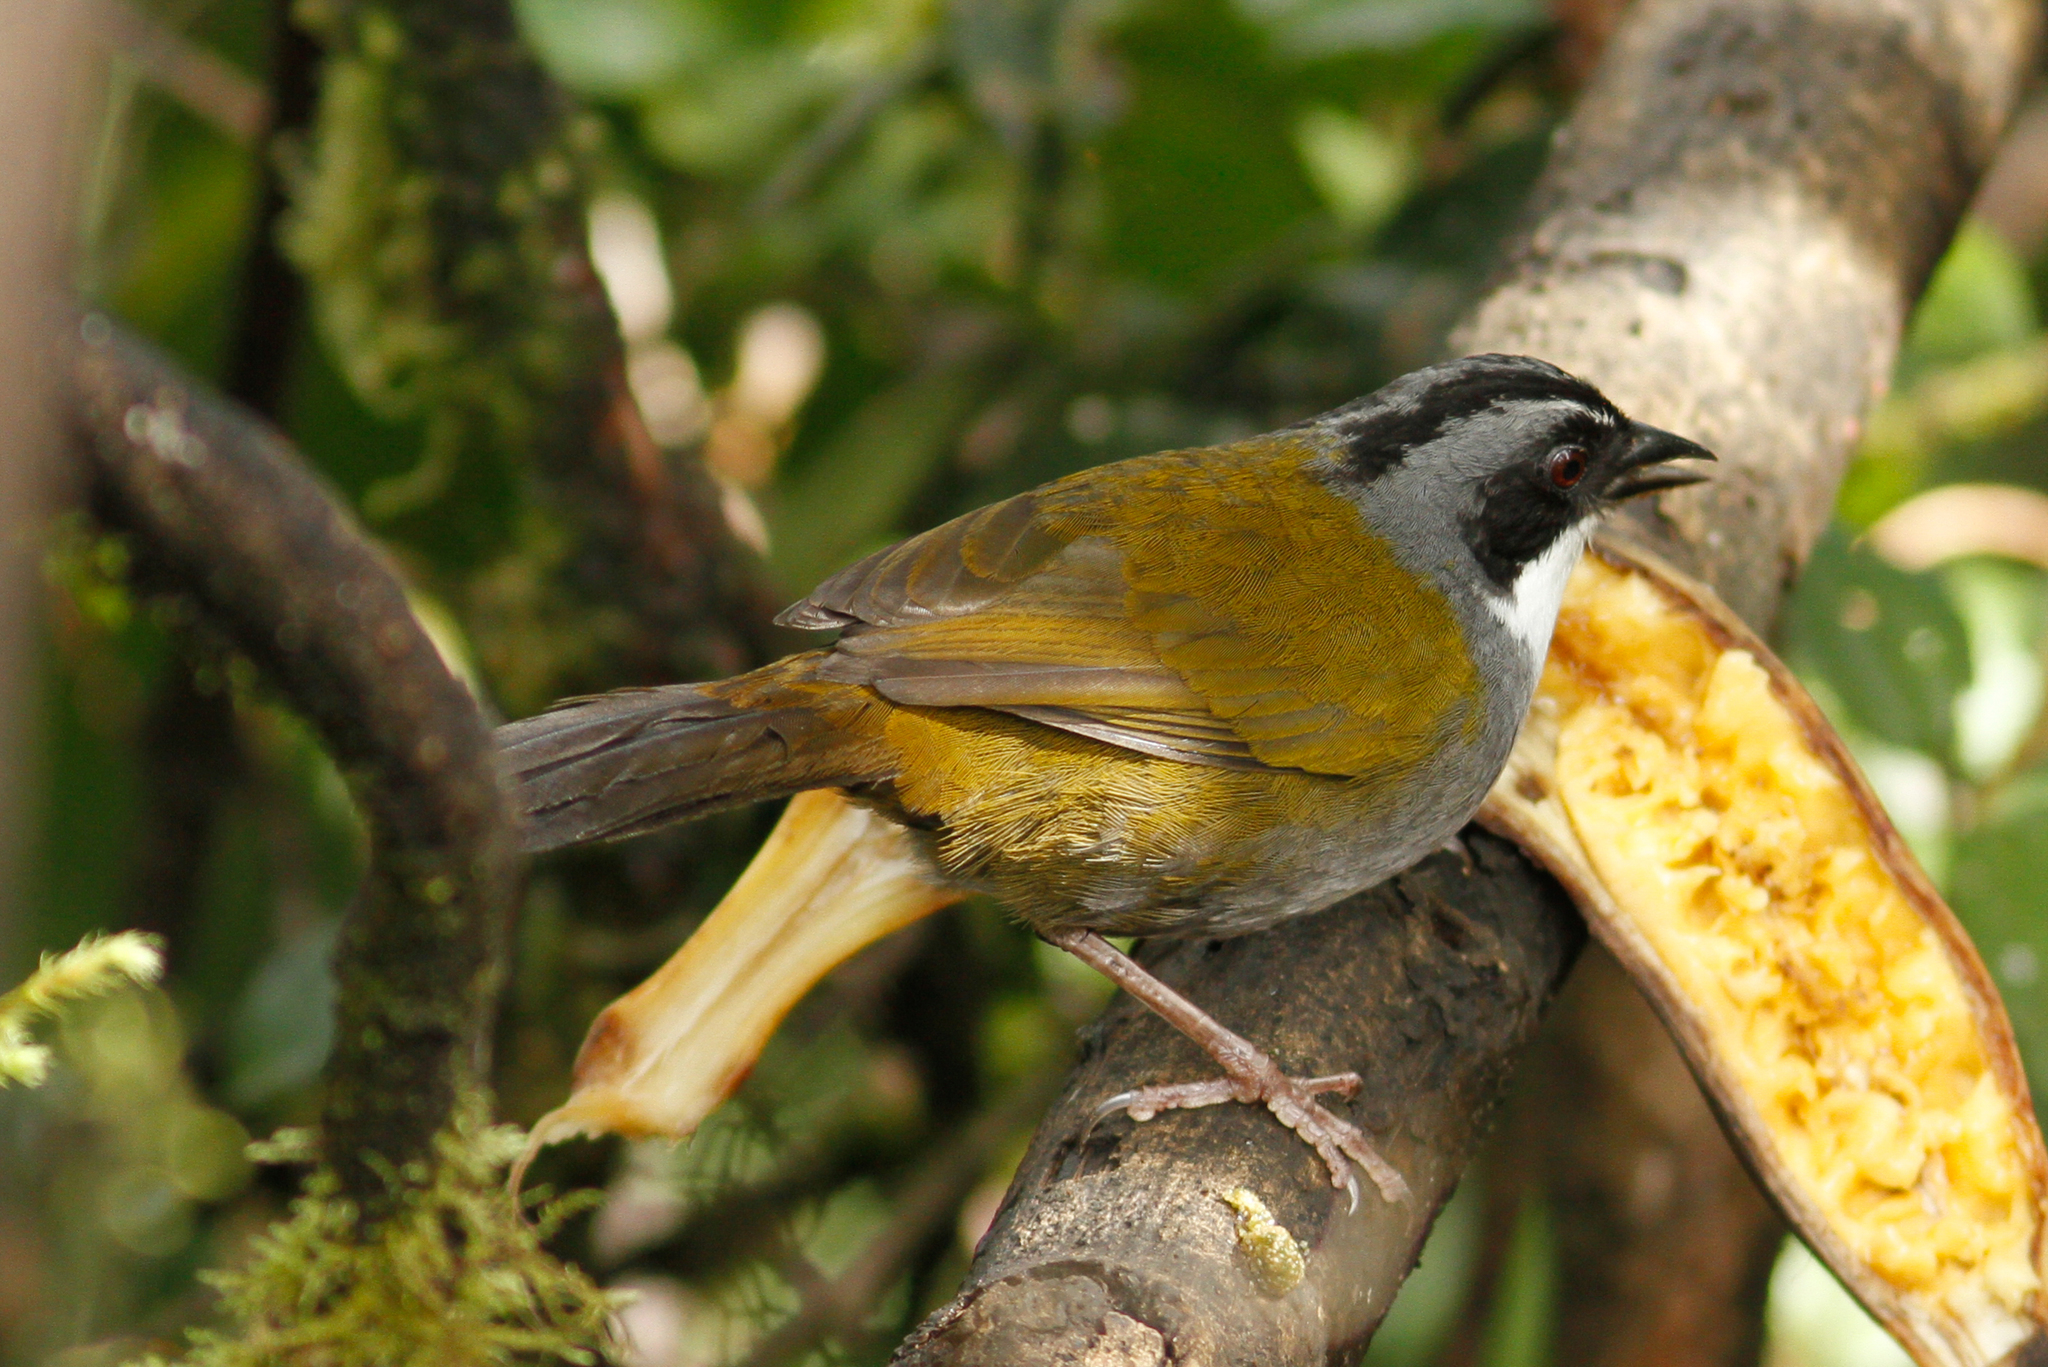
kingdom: Animalia
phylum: Chordata
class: Aves
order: Passeriformes
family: Passerellidae
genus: Arremon
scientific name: Arremon assimilis
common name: Grey-browed brushfinch
